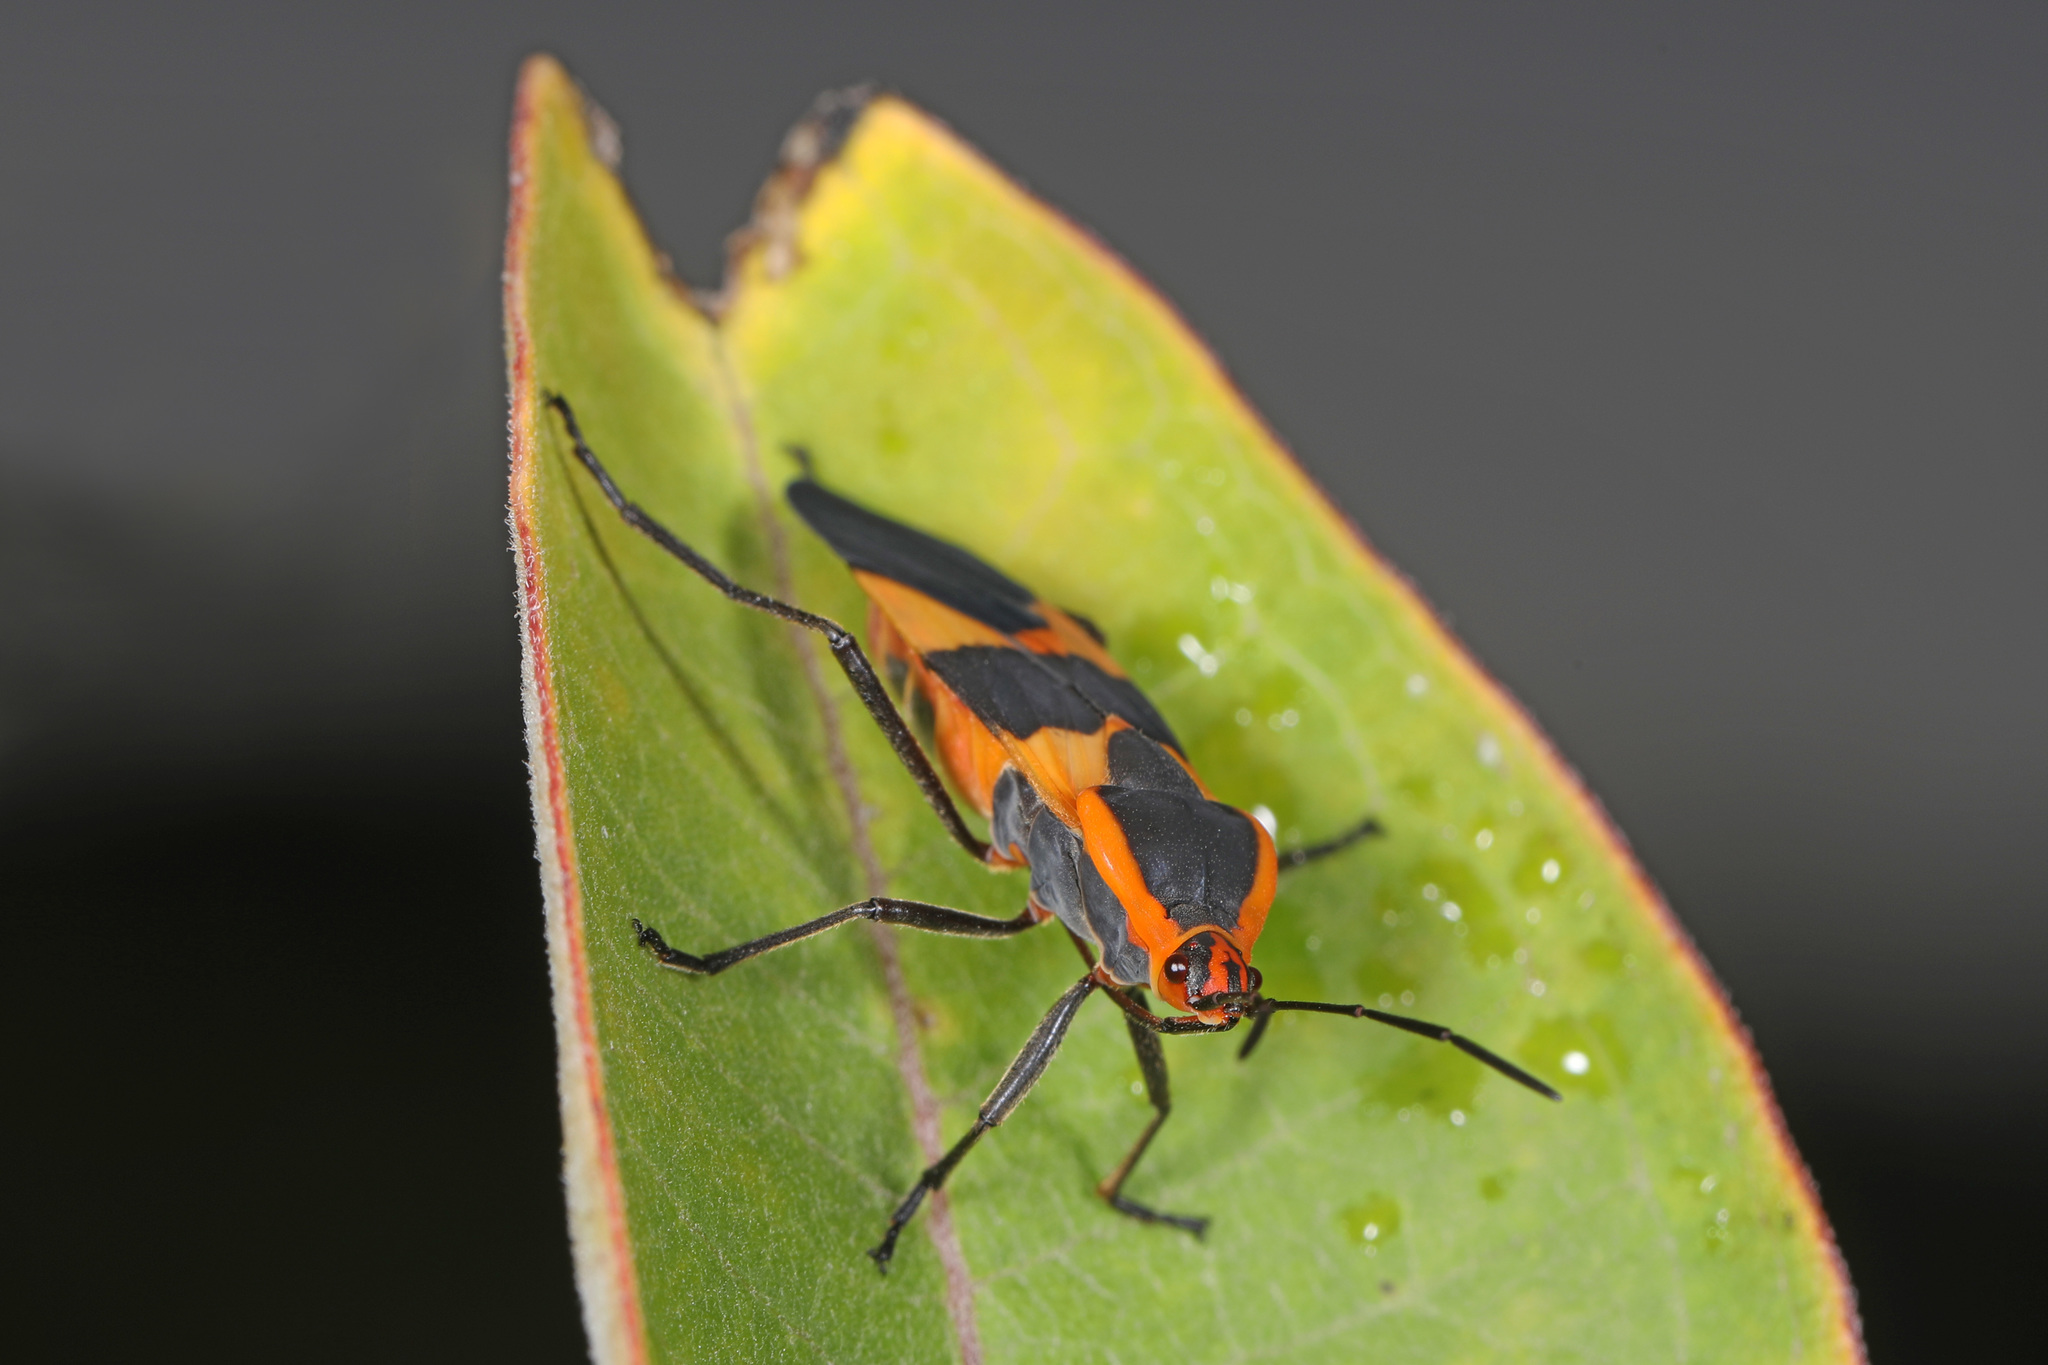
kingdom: Animalia
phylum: Arthropoda
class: Insecta
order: Hemiptera
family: Lygaeidae
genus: Oncopeltus
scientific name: Oncopeltus fasciatus
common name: Large milkweed bug
